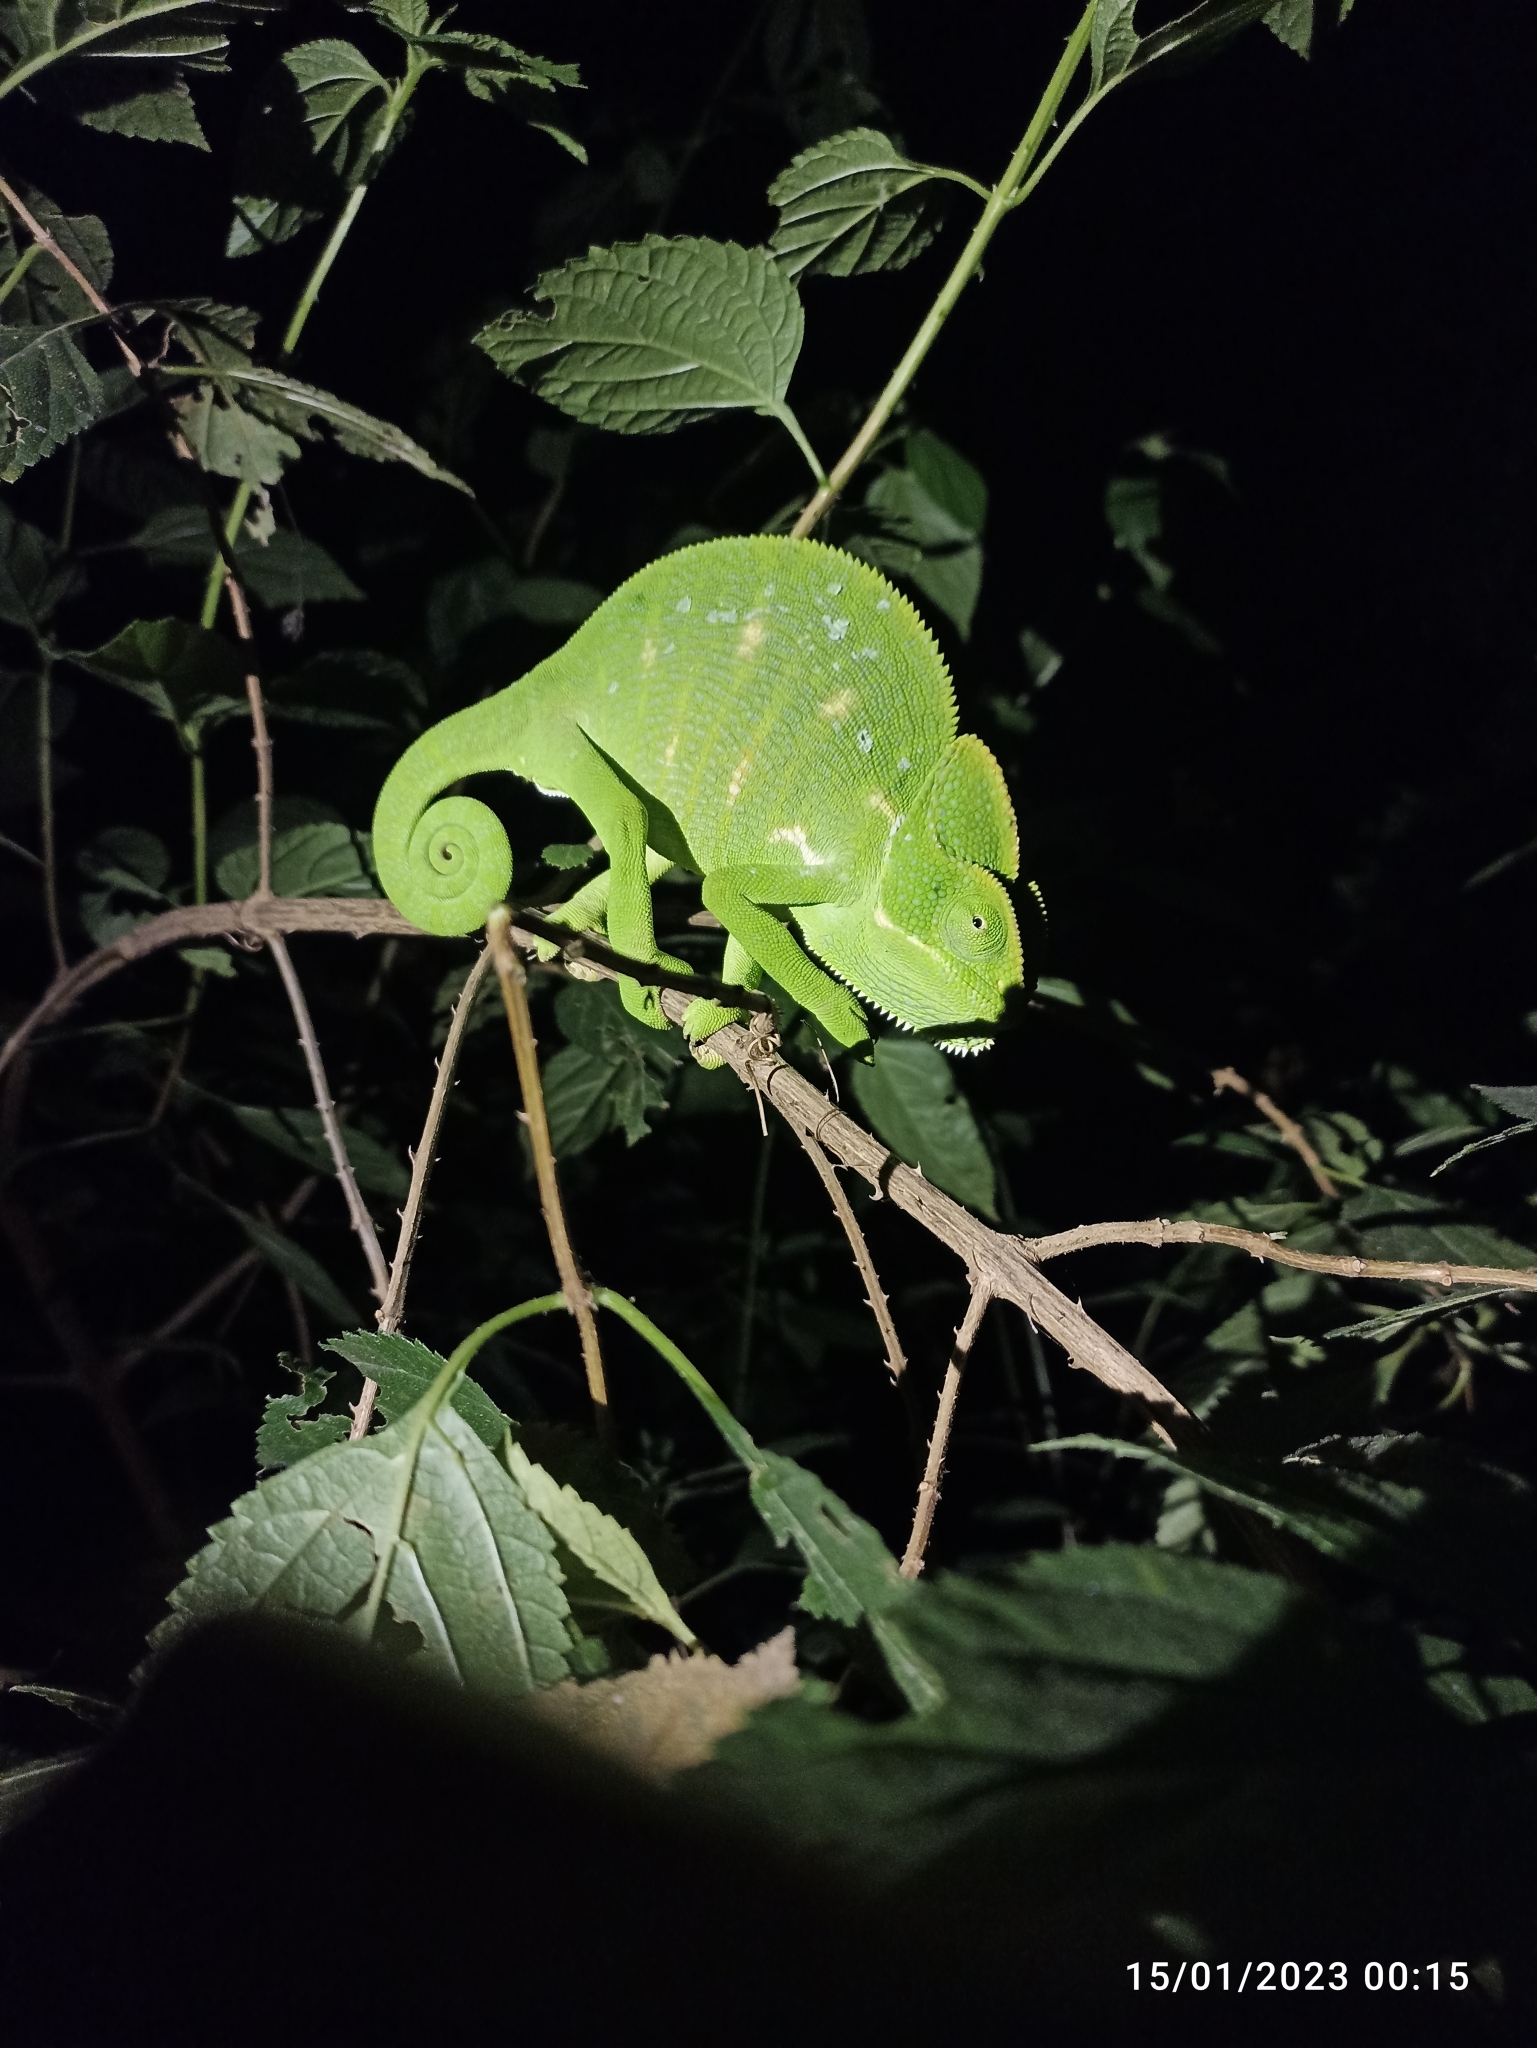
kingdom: Animalia
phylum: Chordata
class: Squamata
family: Chamaeleonidae
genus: Chamaeleo
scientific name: Chamaeleo zeylanicus
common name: Indian chameleon
